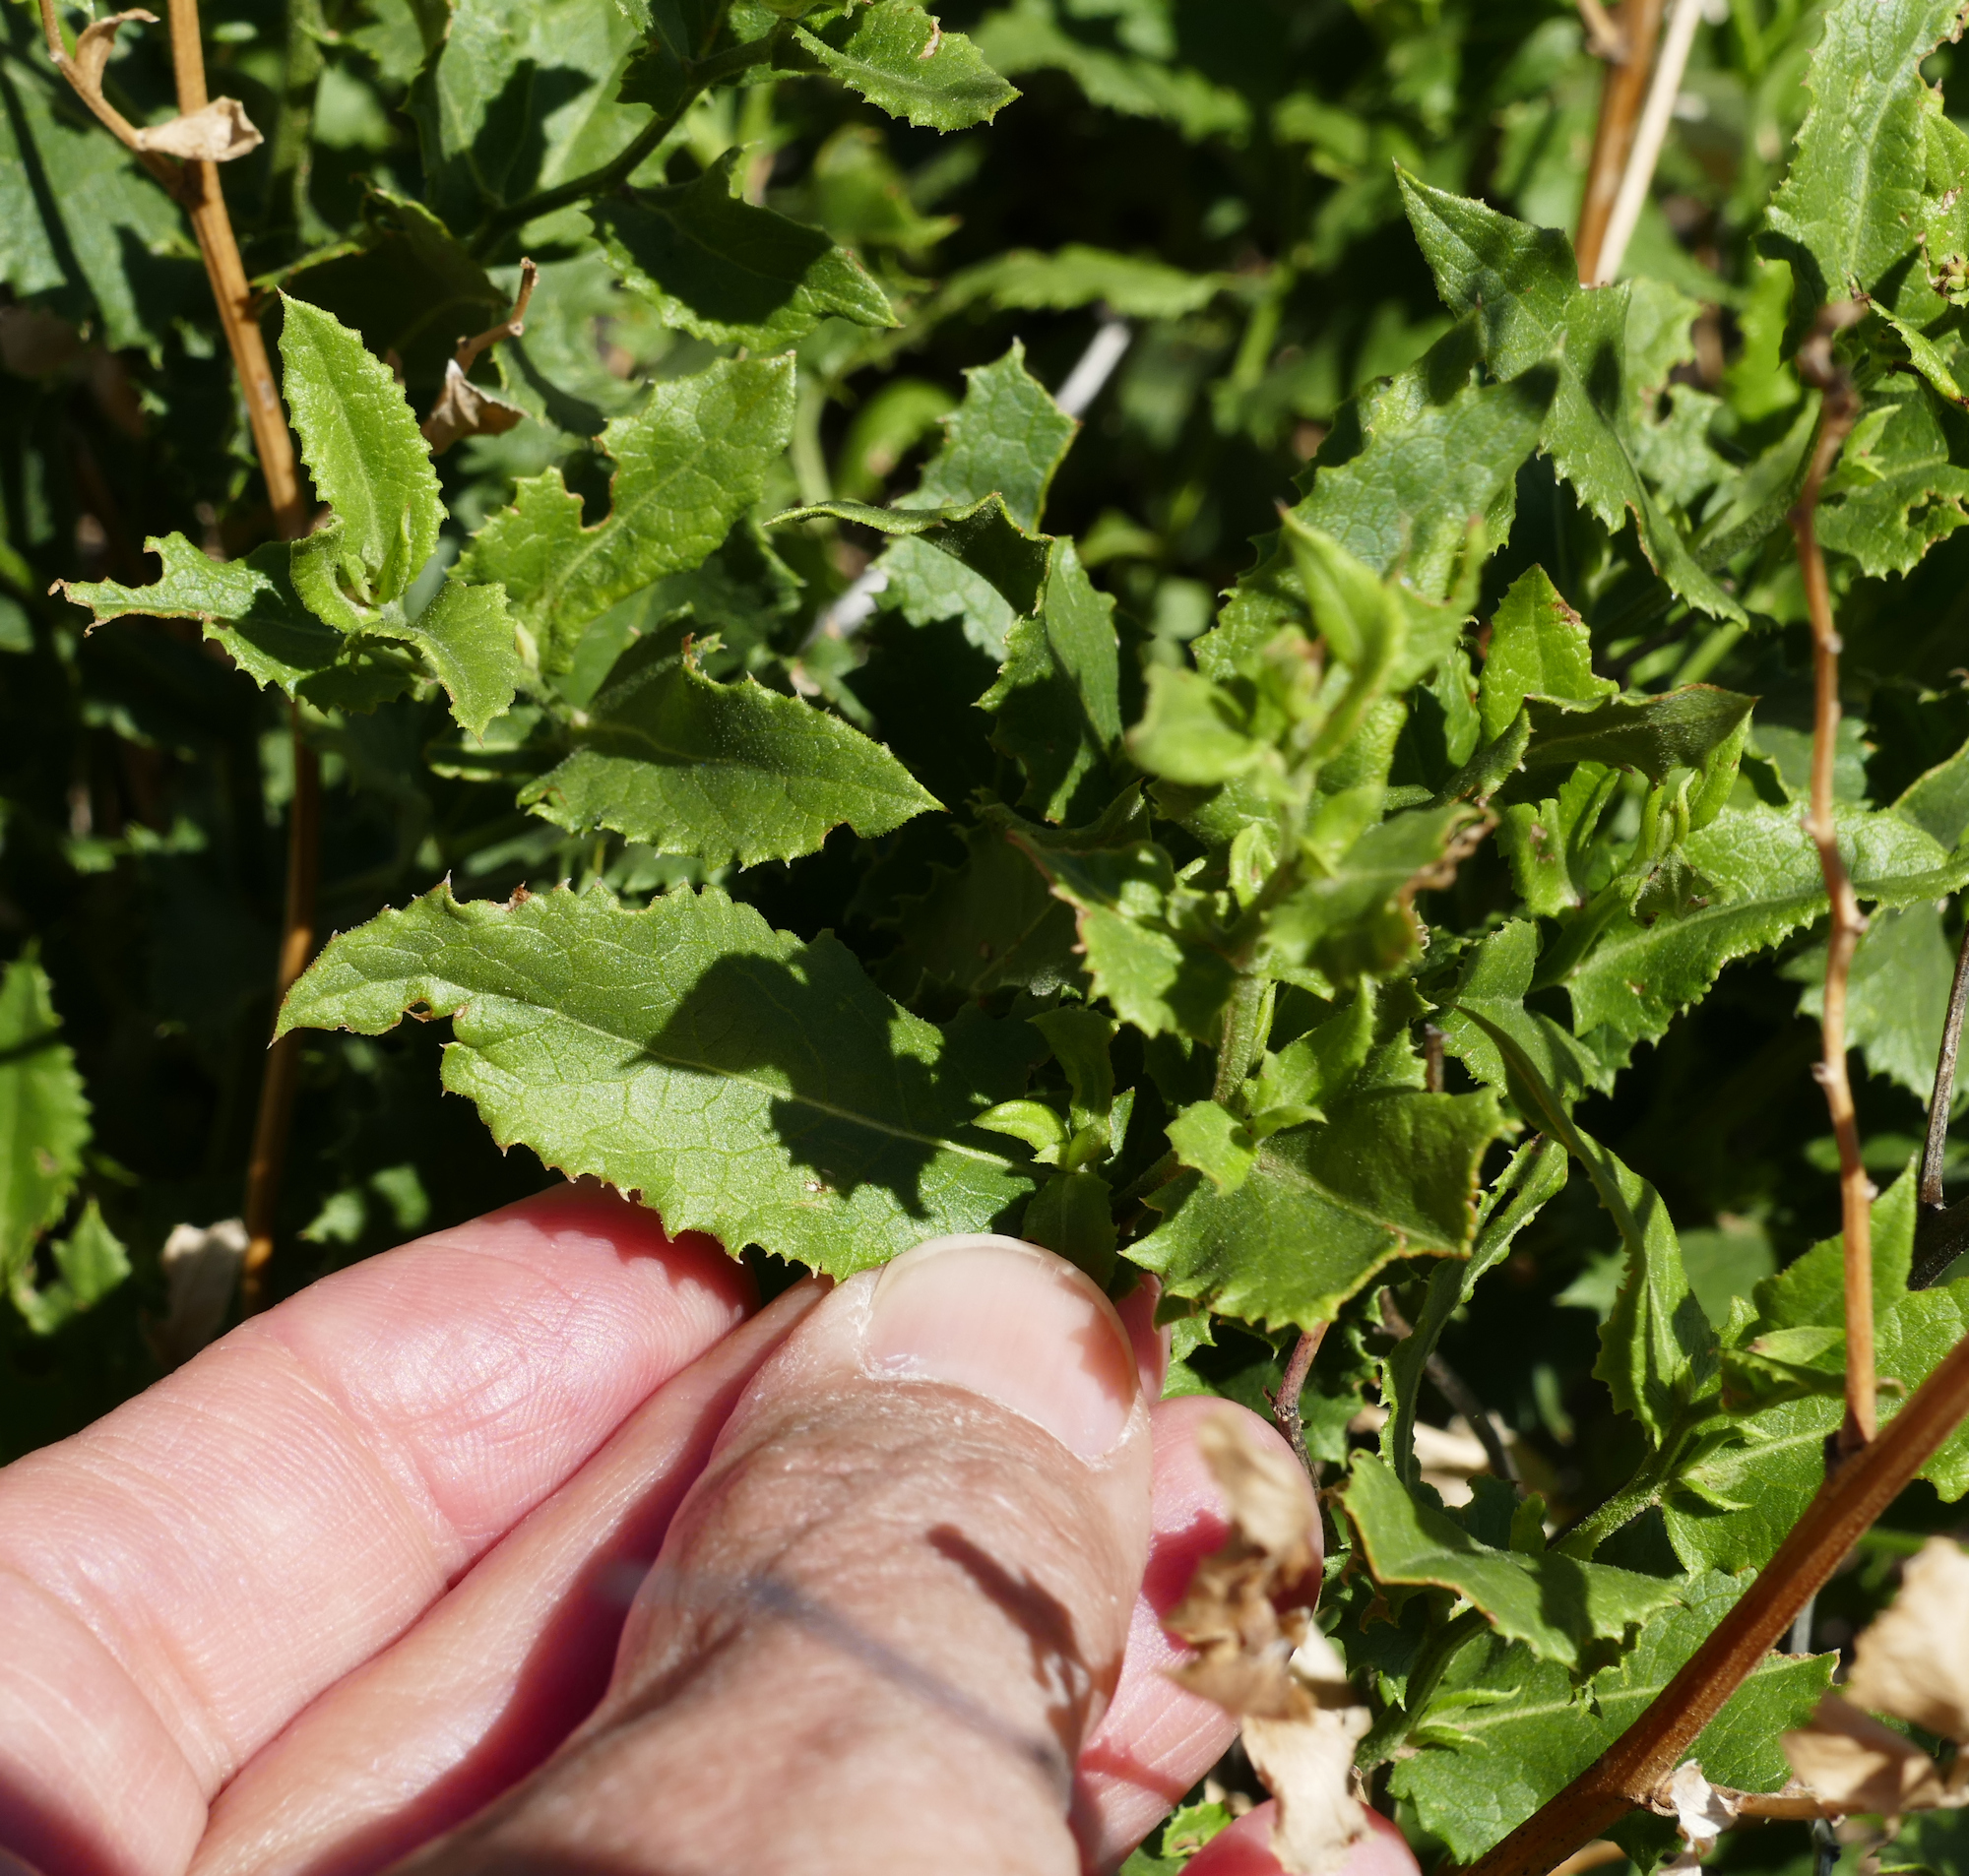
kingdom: Plantae
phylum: Tracheophyta
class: Magnoliopsida
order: Asterales
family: Asteraceae
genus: Acourtia
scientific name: Acourtia wrightii
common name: Brownfoot
